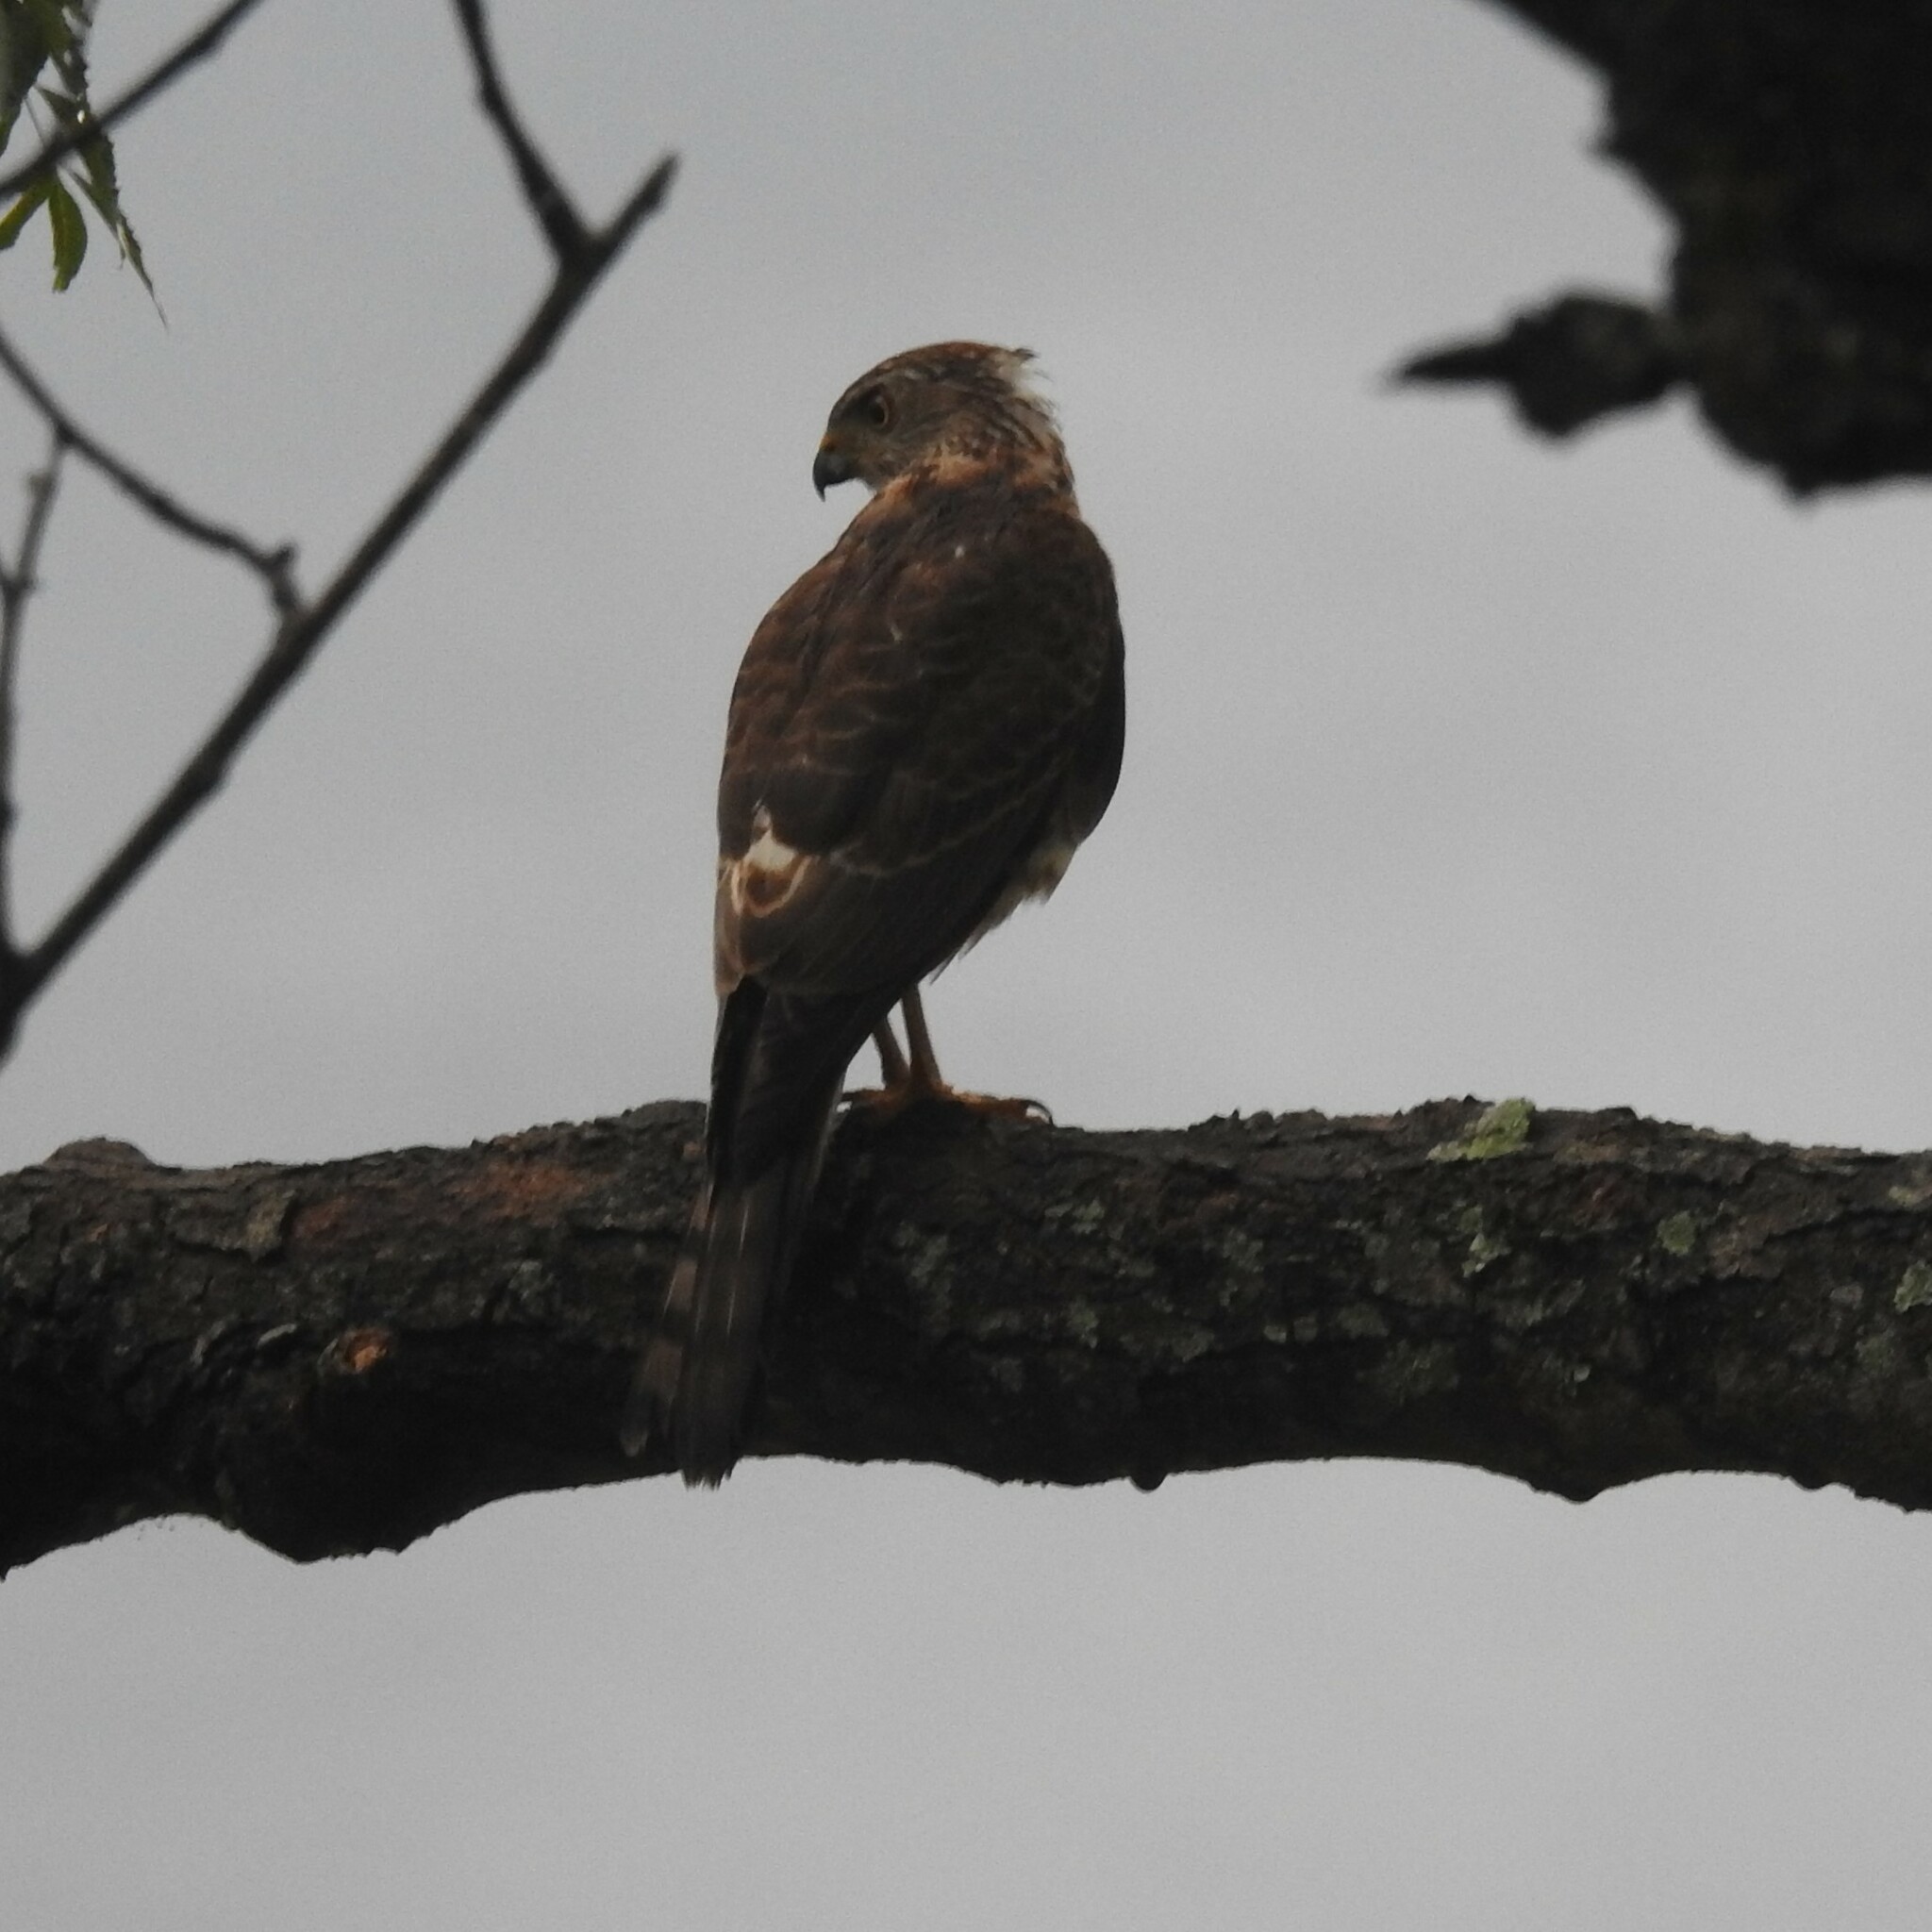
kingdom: Animalia
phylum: Chordata
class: Aves
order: Accipitriformes
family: Accipitridae
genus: Accipiter
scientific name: Accipiter badius
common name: Shikra
